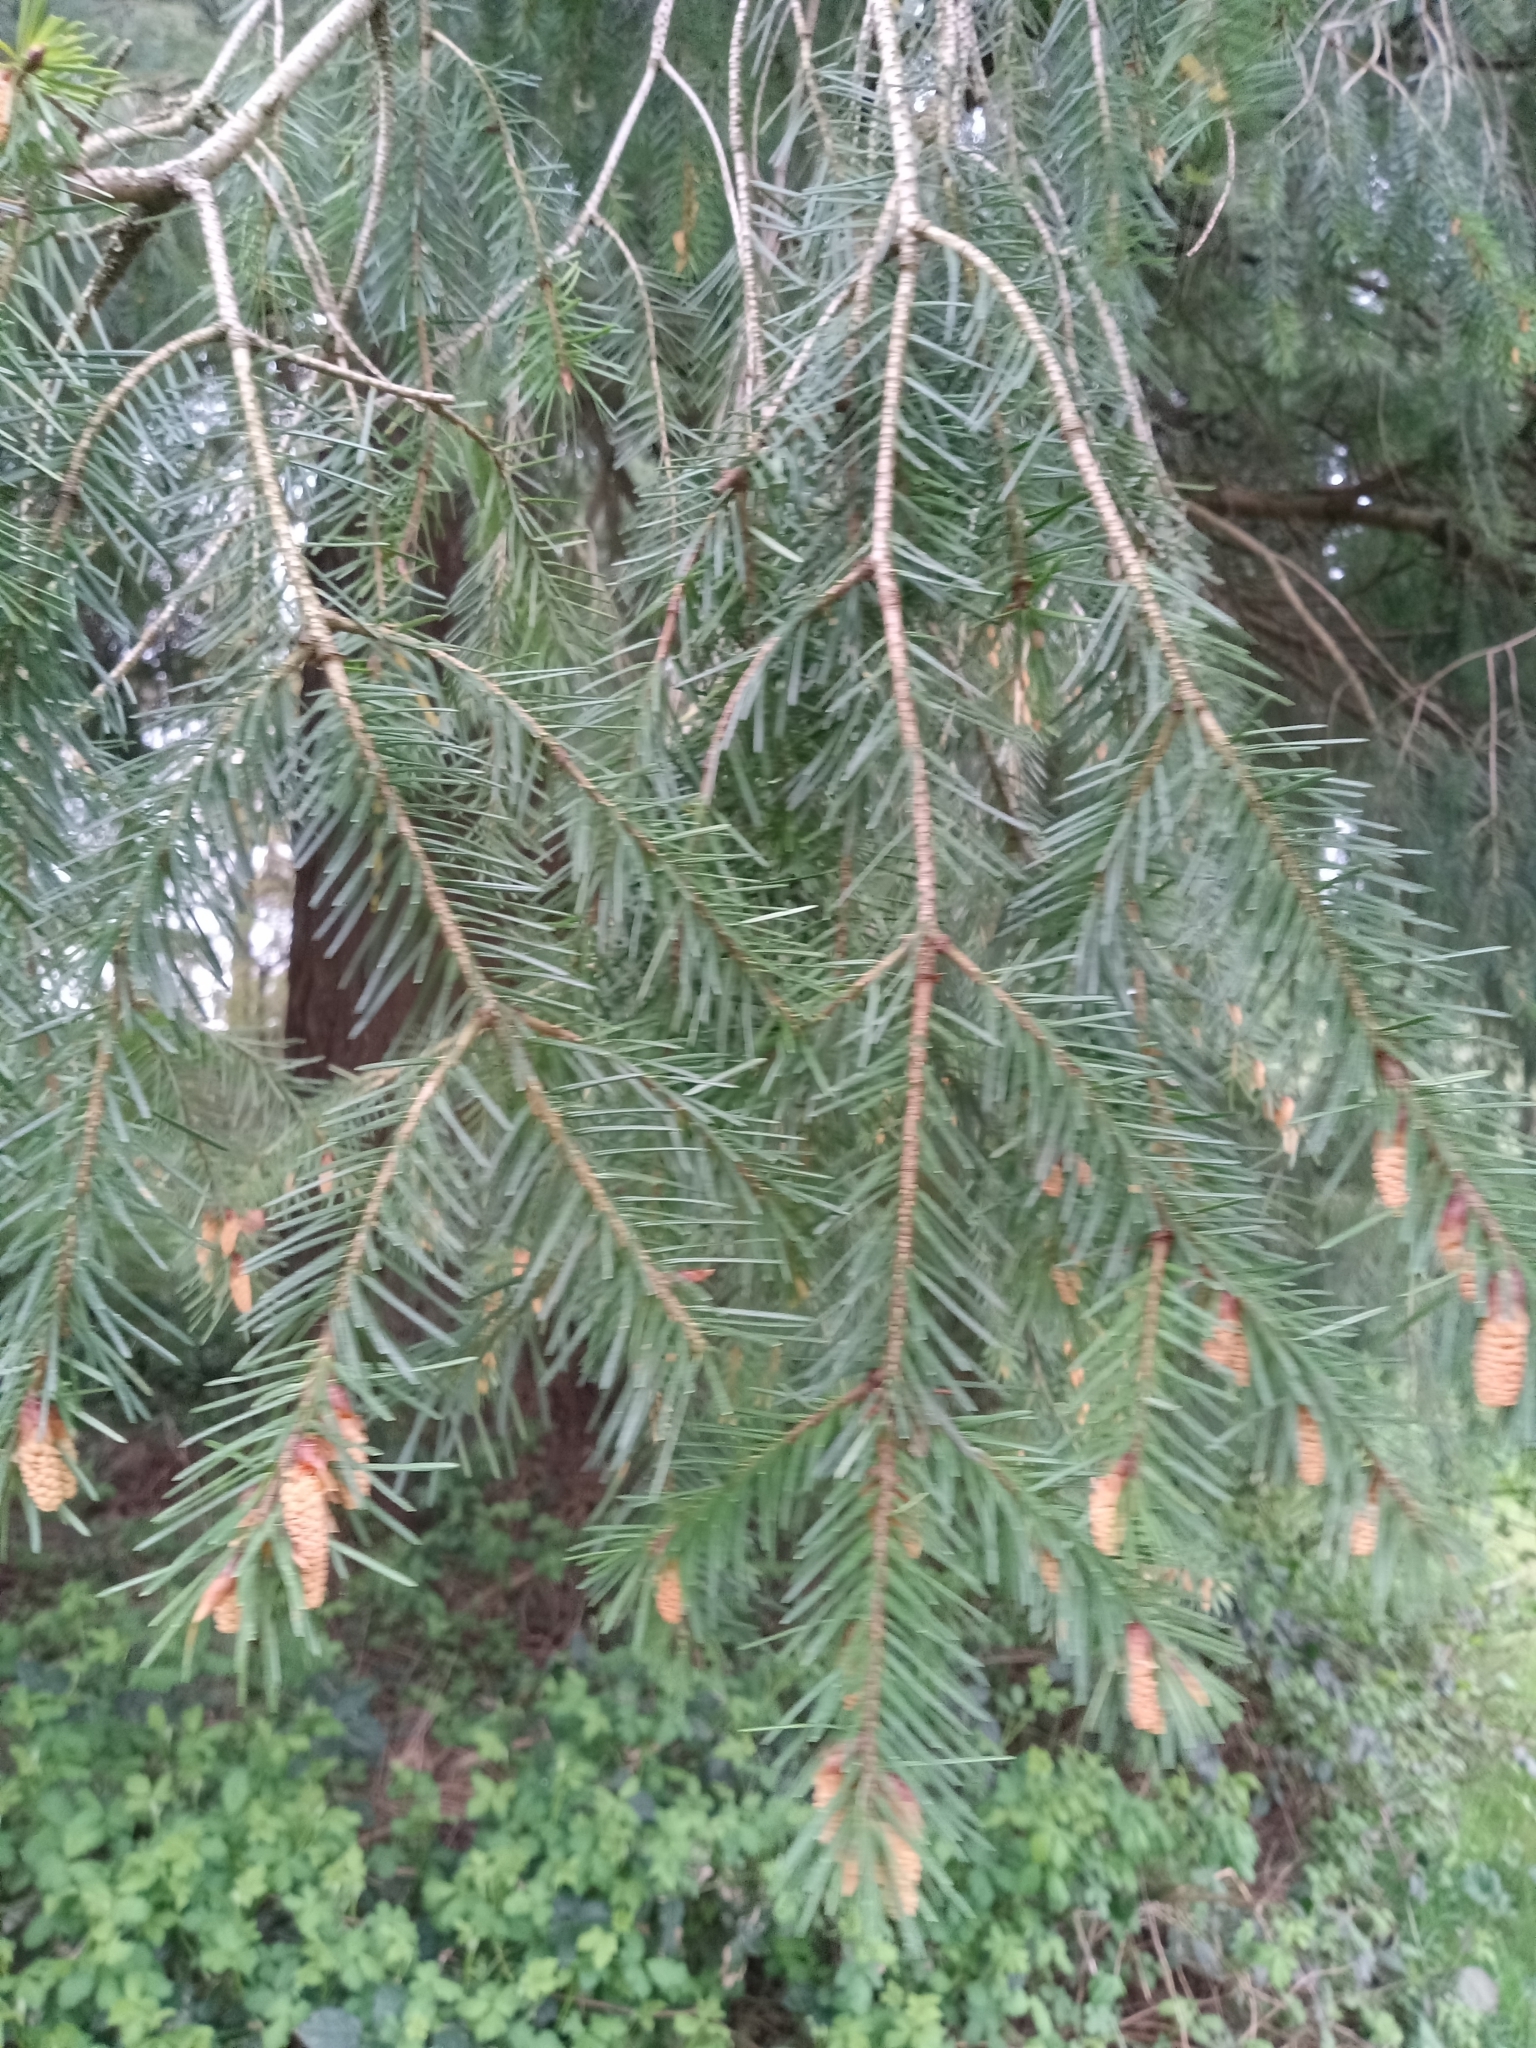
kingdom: Plantae
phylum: Tracheophyta
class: Pinopsida
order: Pinales
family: Pinaceae
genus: Pseudotsuga
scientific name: Pseudotsuga menziesii
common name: Douglas fir
